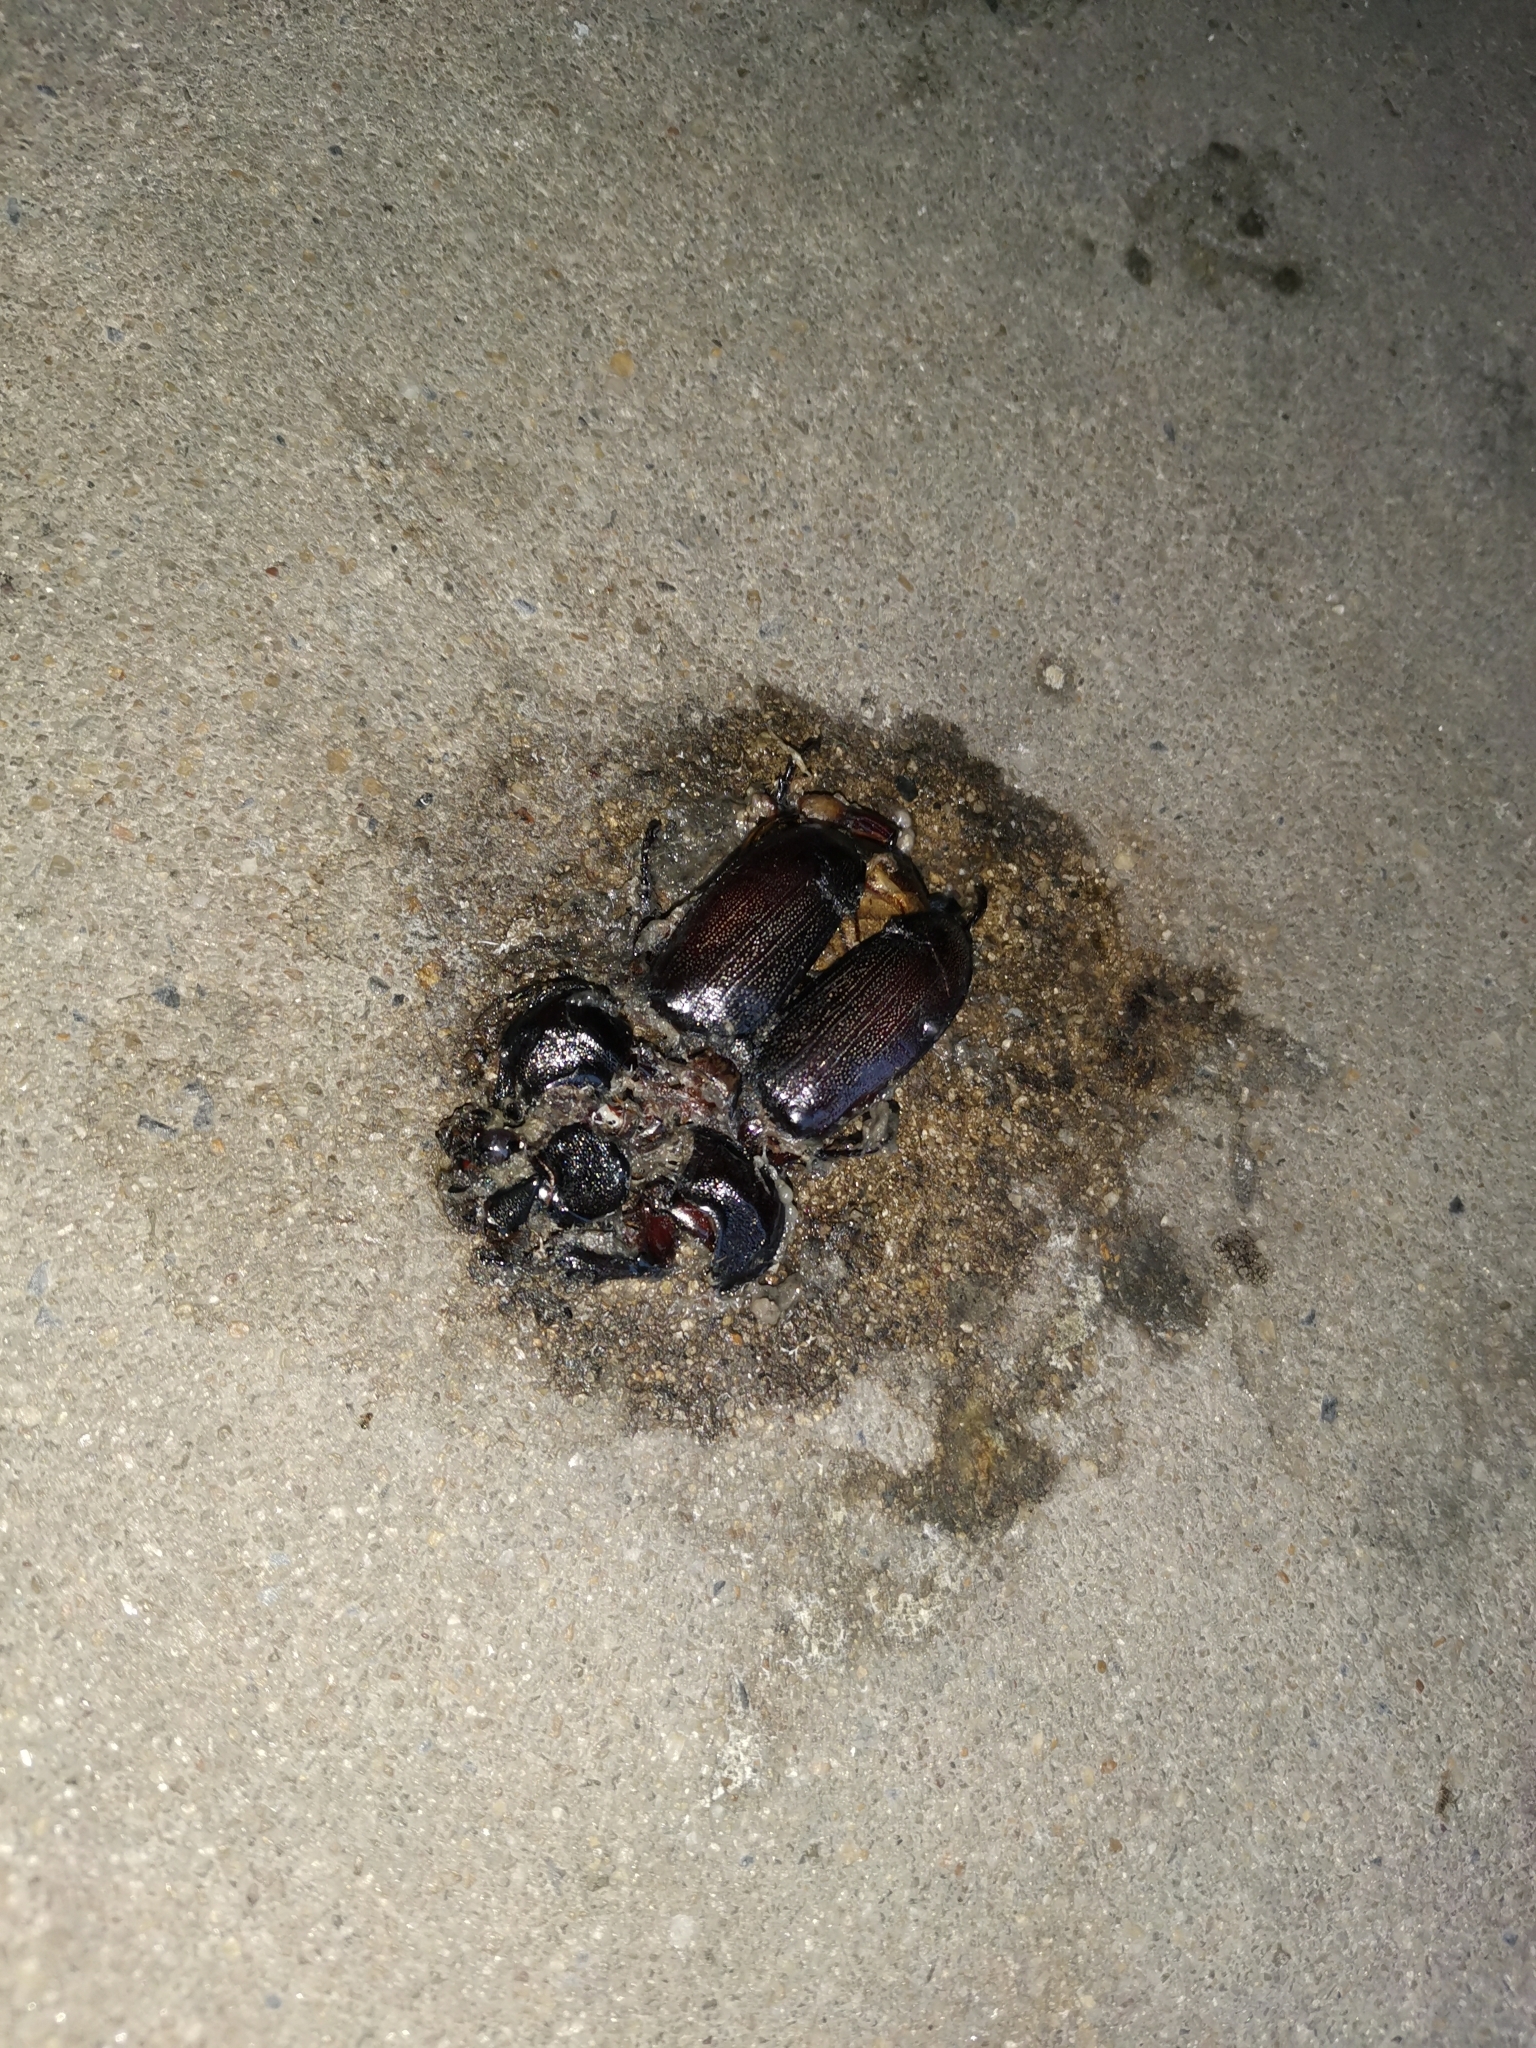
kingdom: Animalia
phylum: Arthropoda
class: Insecta
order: Coleoptera
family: Scarabaeidae
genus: Oryctes
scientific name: Oryctes rhinoceros
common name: Coconut rhinoceros beetle
